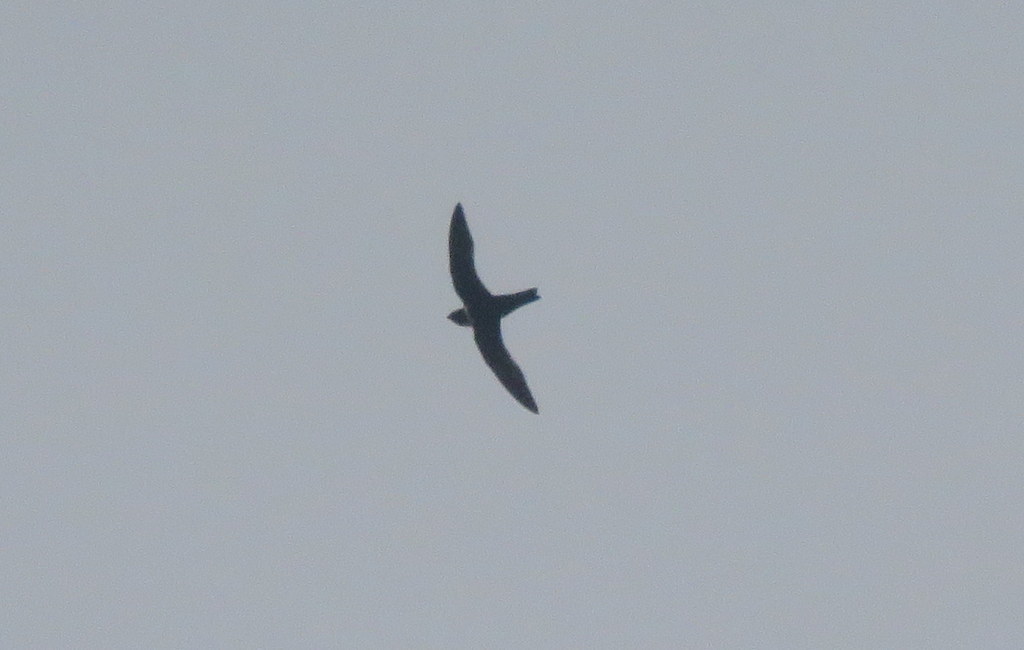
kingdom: Animalia
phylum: Chordata
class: Aves
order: Apodiformes
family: Apodidae
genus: Streptoprocne
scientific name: Streptoprocne zonaris
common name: White-collared swift
